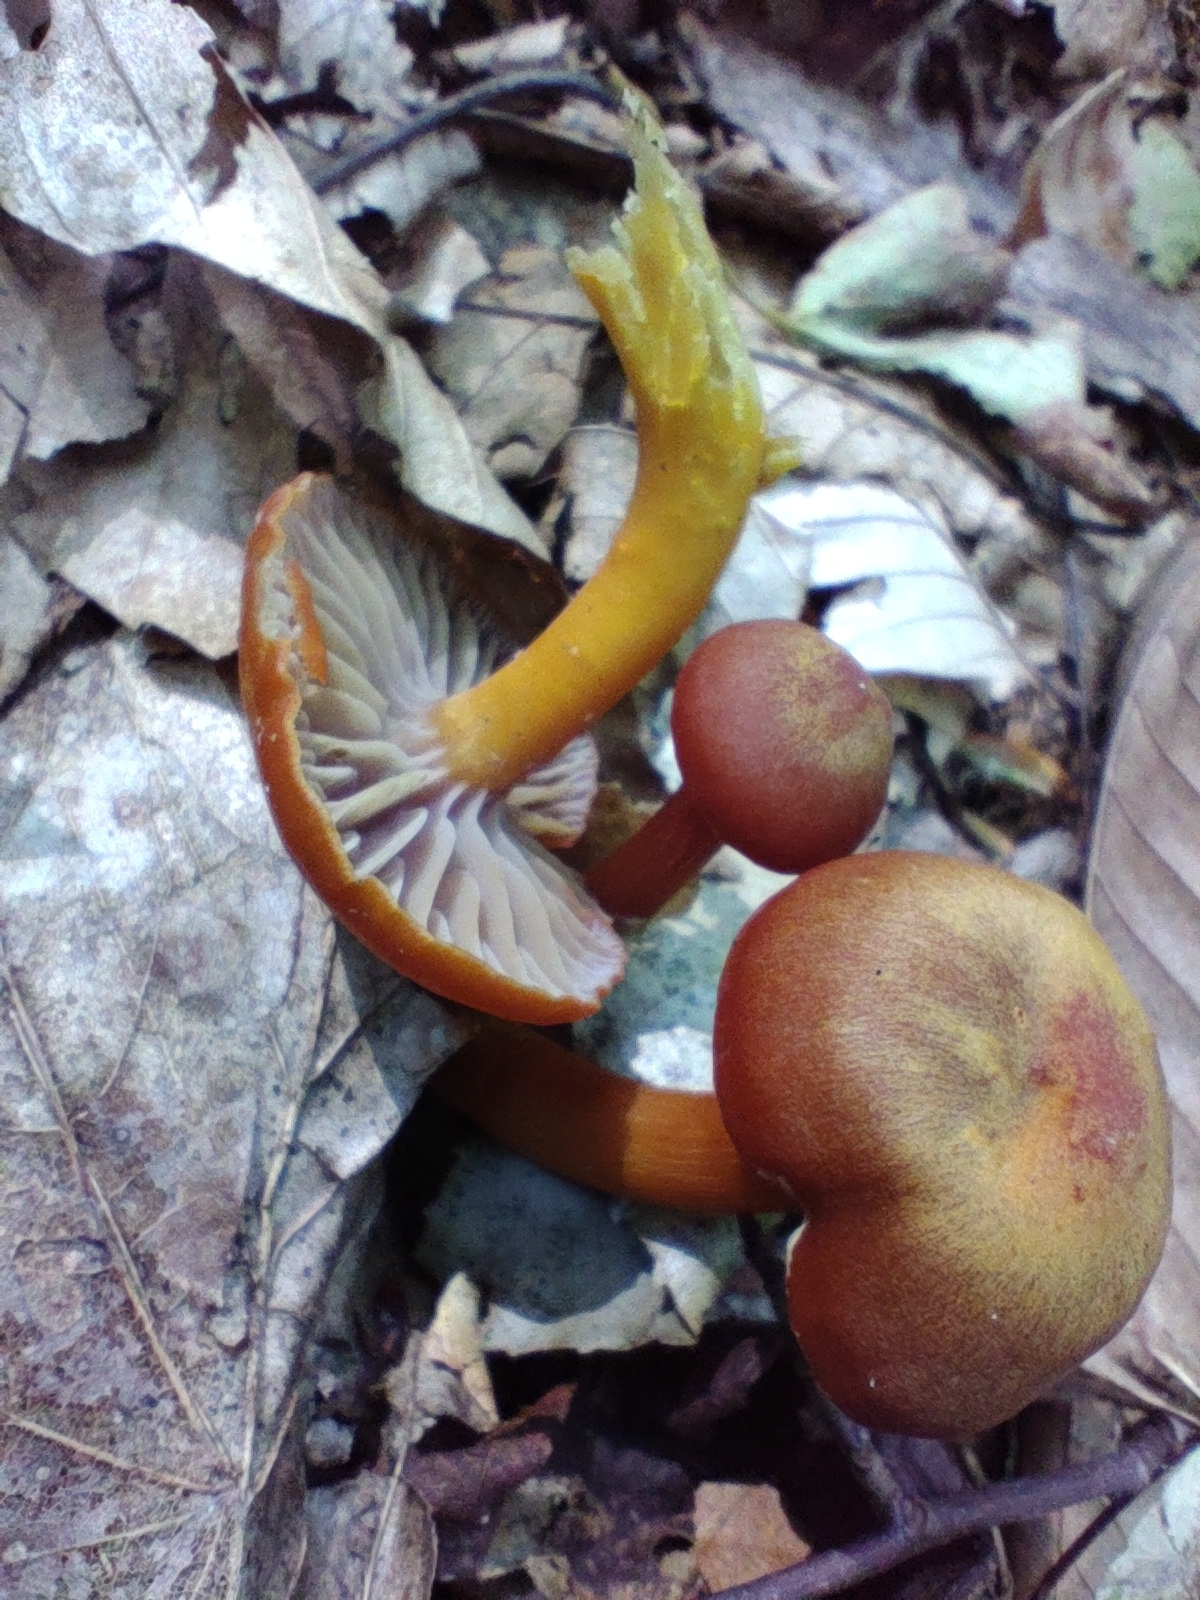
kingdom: Fungi
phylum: Basidiomycota
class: Agaricomycetes
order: Agaricales
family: Hygrophoraceae
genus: Hygrocybe
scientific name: Hygrocybe purpureofolia
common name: Purple-gilled waxy cap
